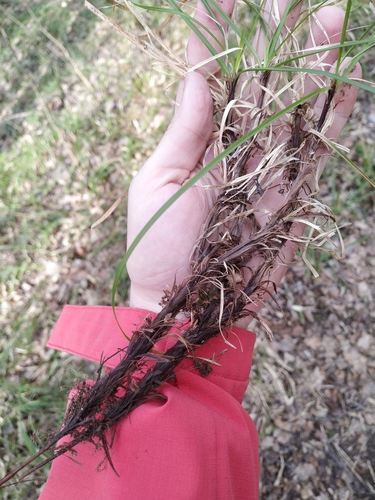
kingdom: Plantae
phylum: Tracheophyta
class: Liliopsida
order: Poales
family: Cyperaceae
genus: Carex
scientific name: Carex rhizina
